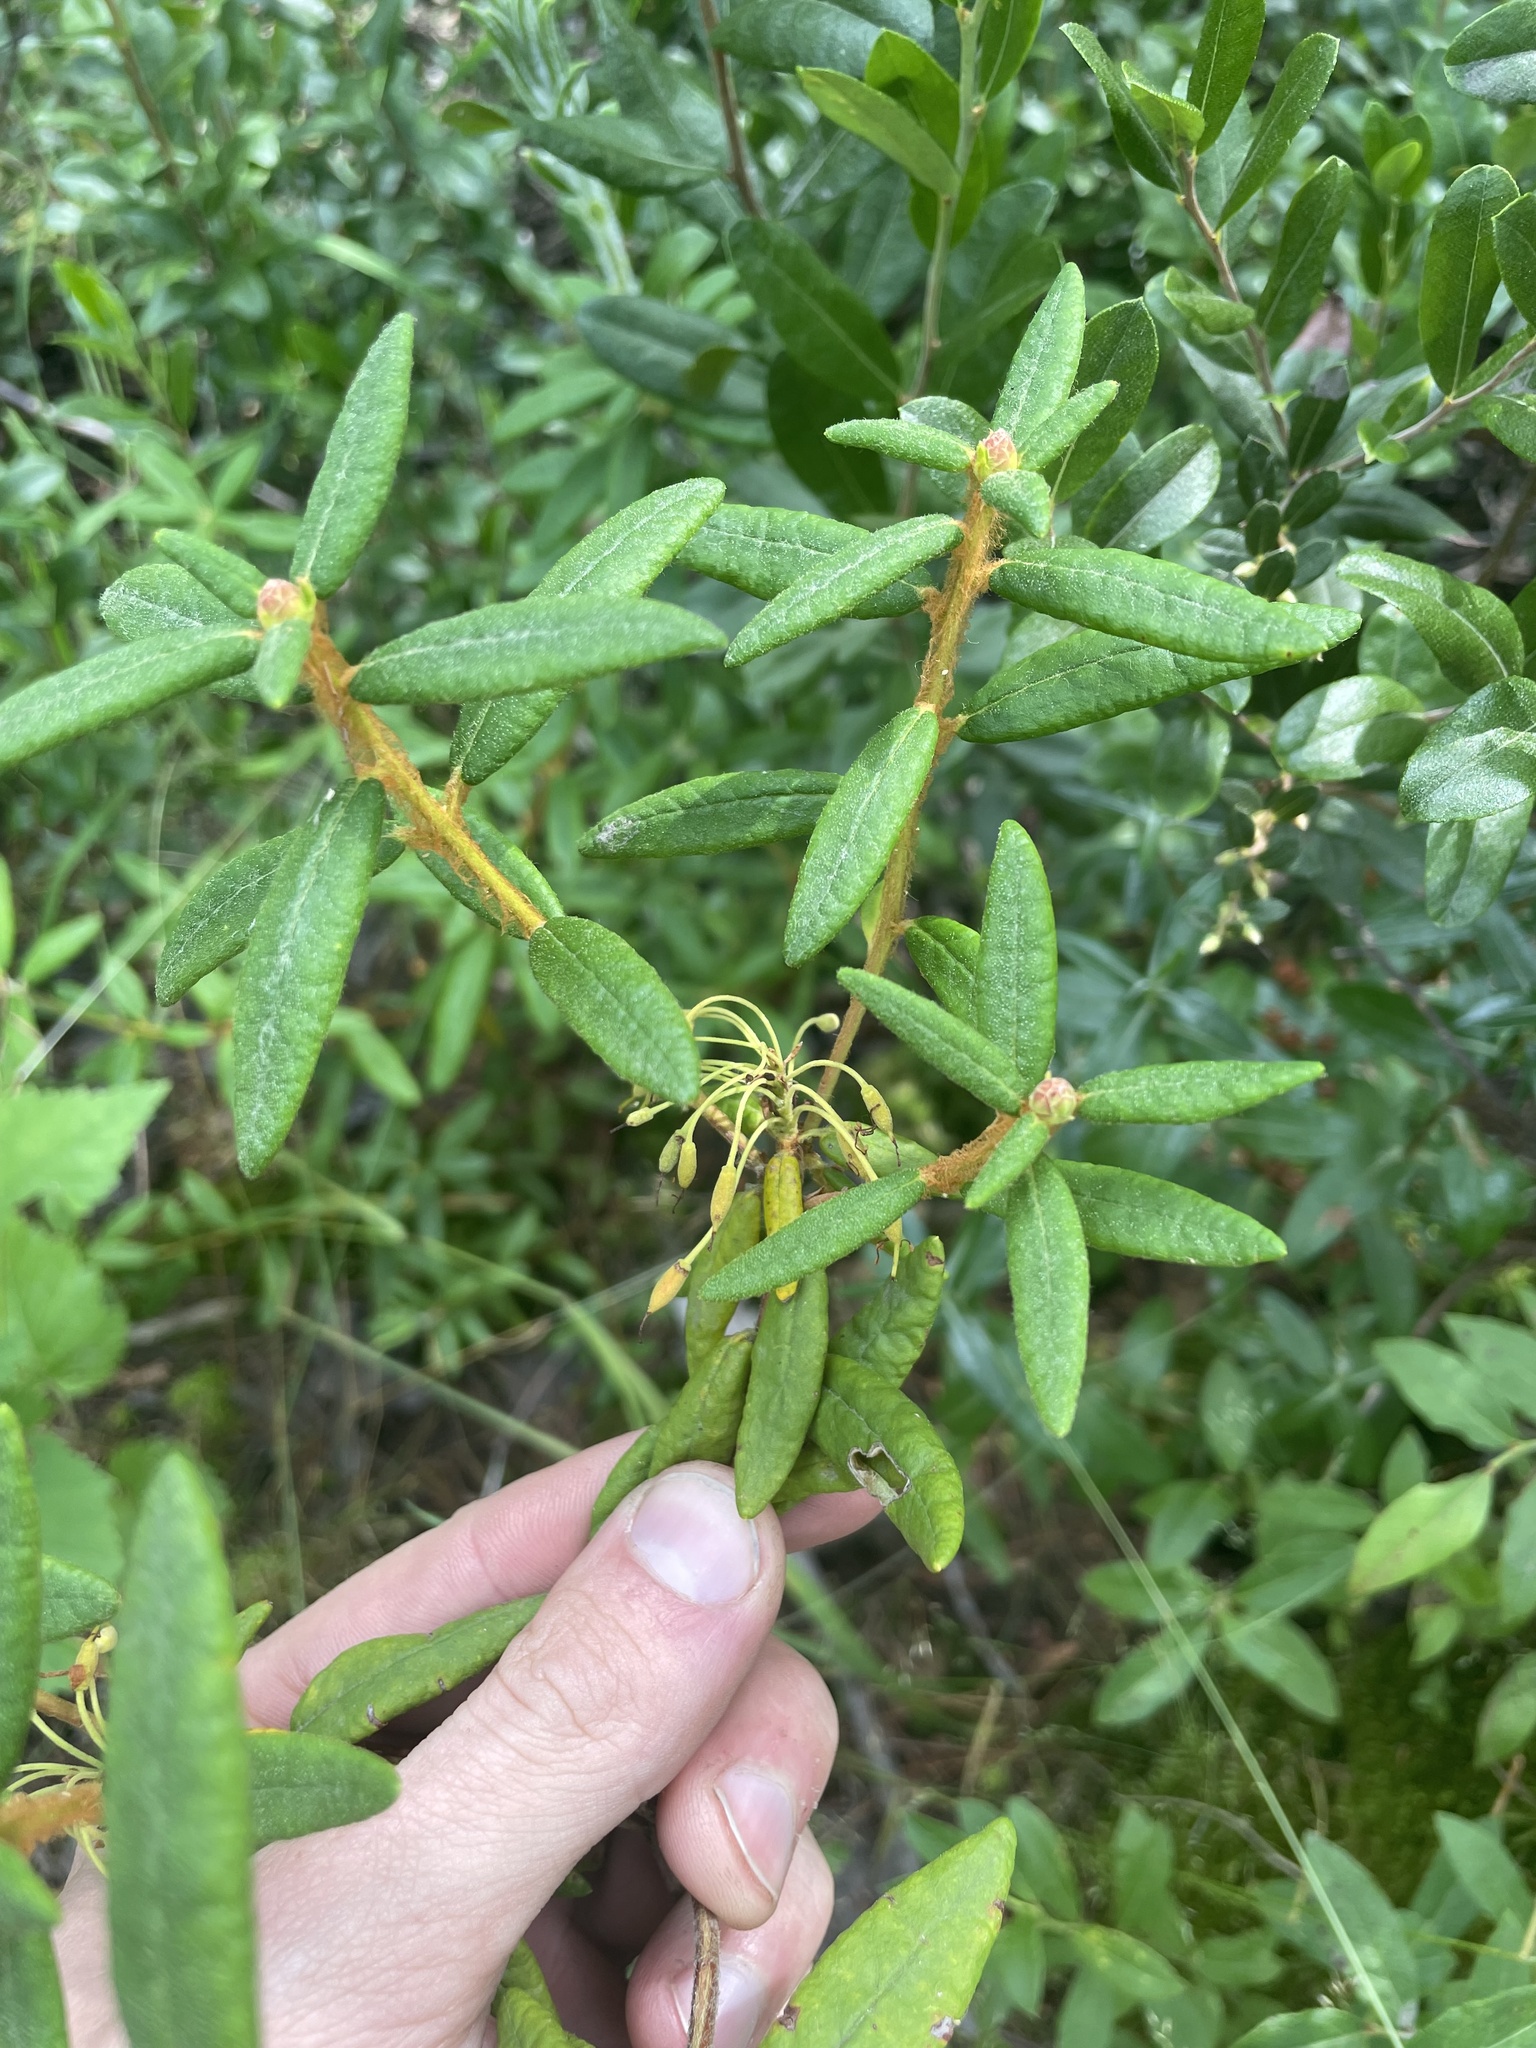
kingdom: Plantae
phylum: Tracheophyta
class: Magnoliopsida
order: Ericales
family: Ericaceae
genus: Rhododendron
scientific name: Rhododendron groenlandicum
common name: Bog labrador tea
